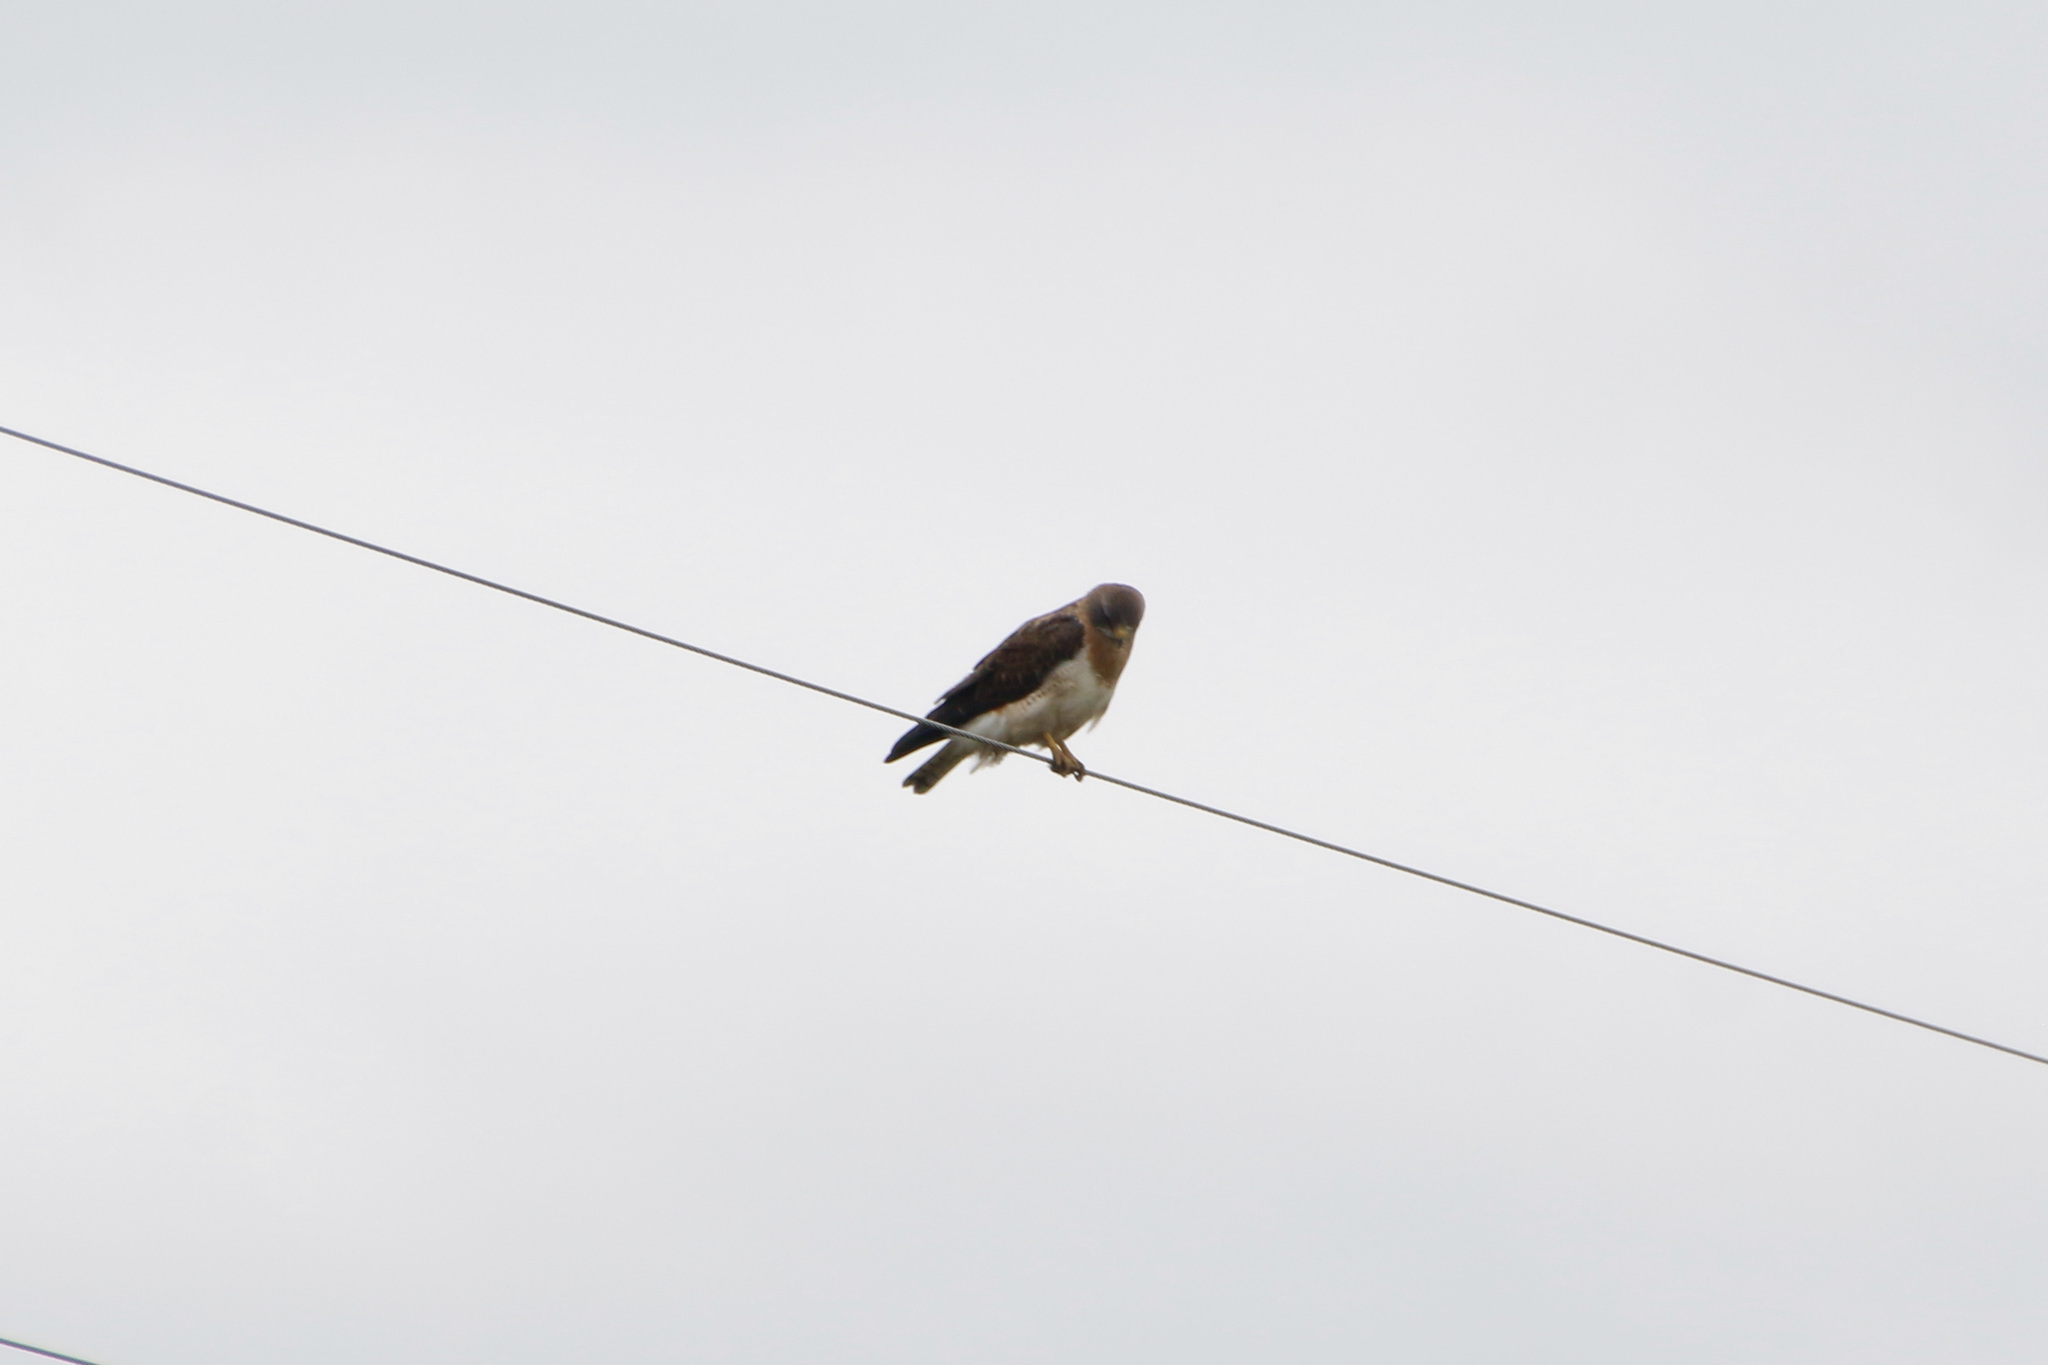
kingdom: Animalia
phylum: Chordata
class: Aves
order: Accipitriformes
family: Accipitridae
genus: Buteo
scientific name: Buteo swainsoni
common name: Swainson's hawk
